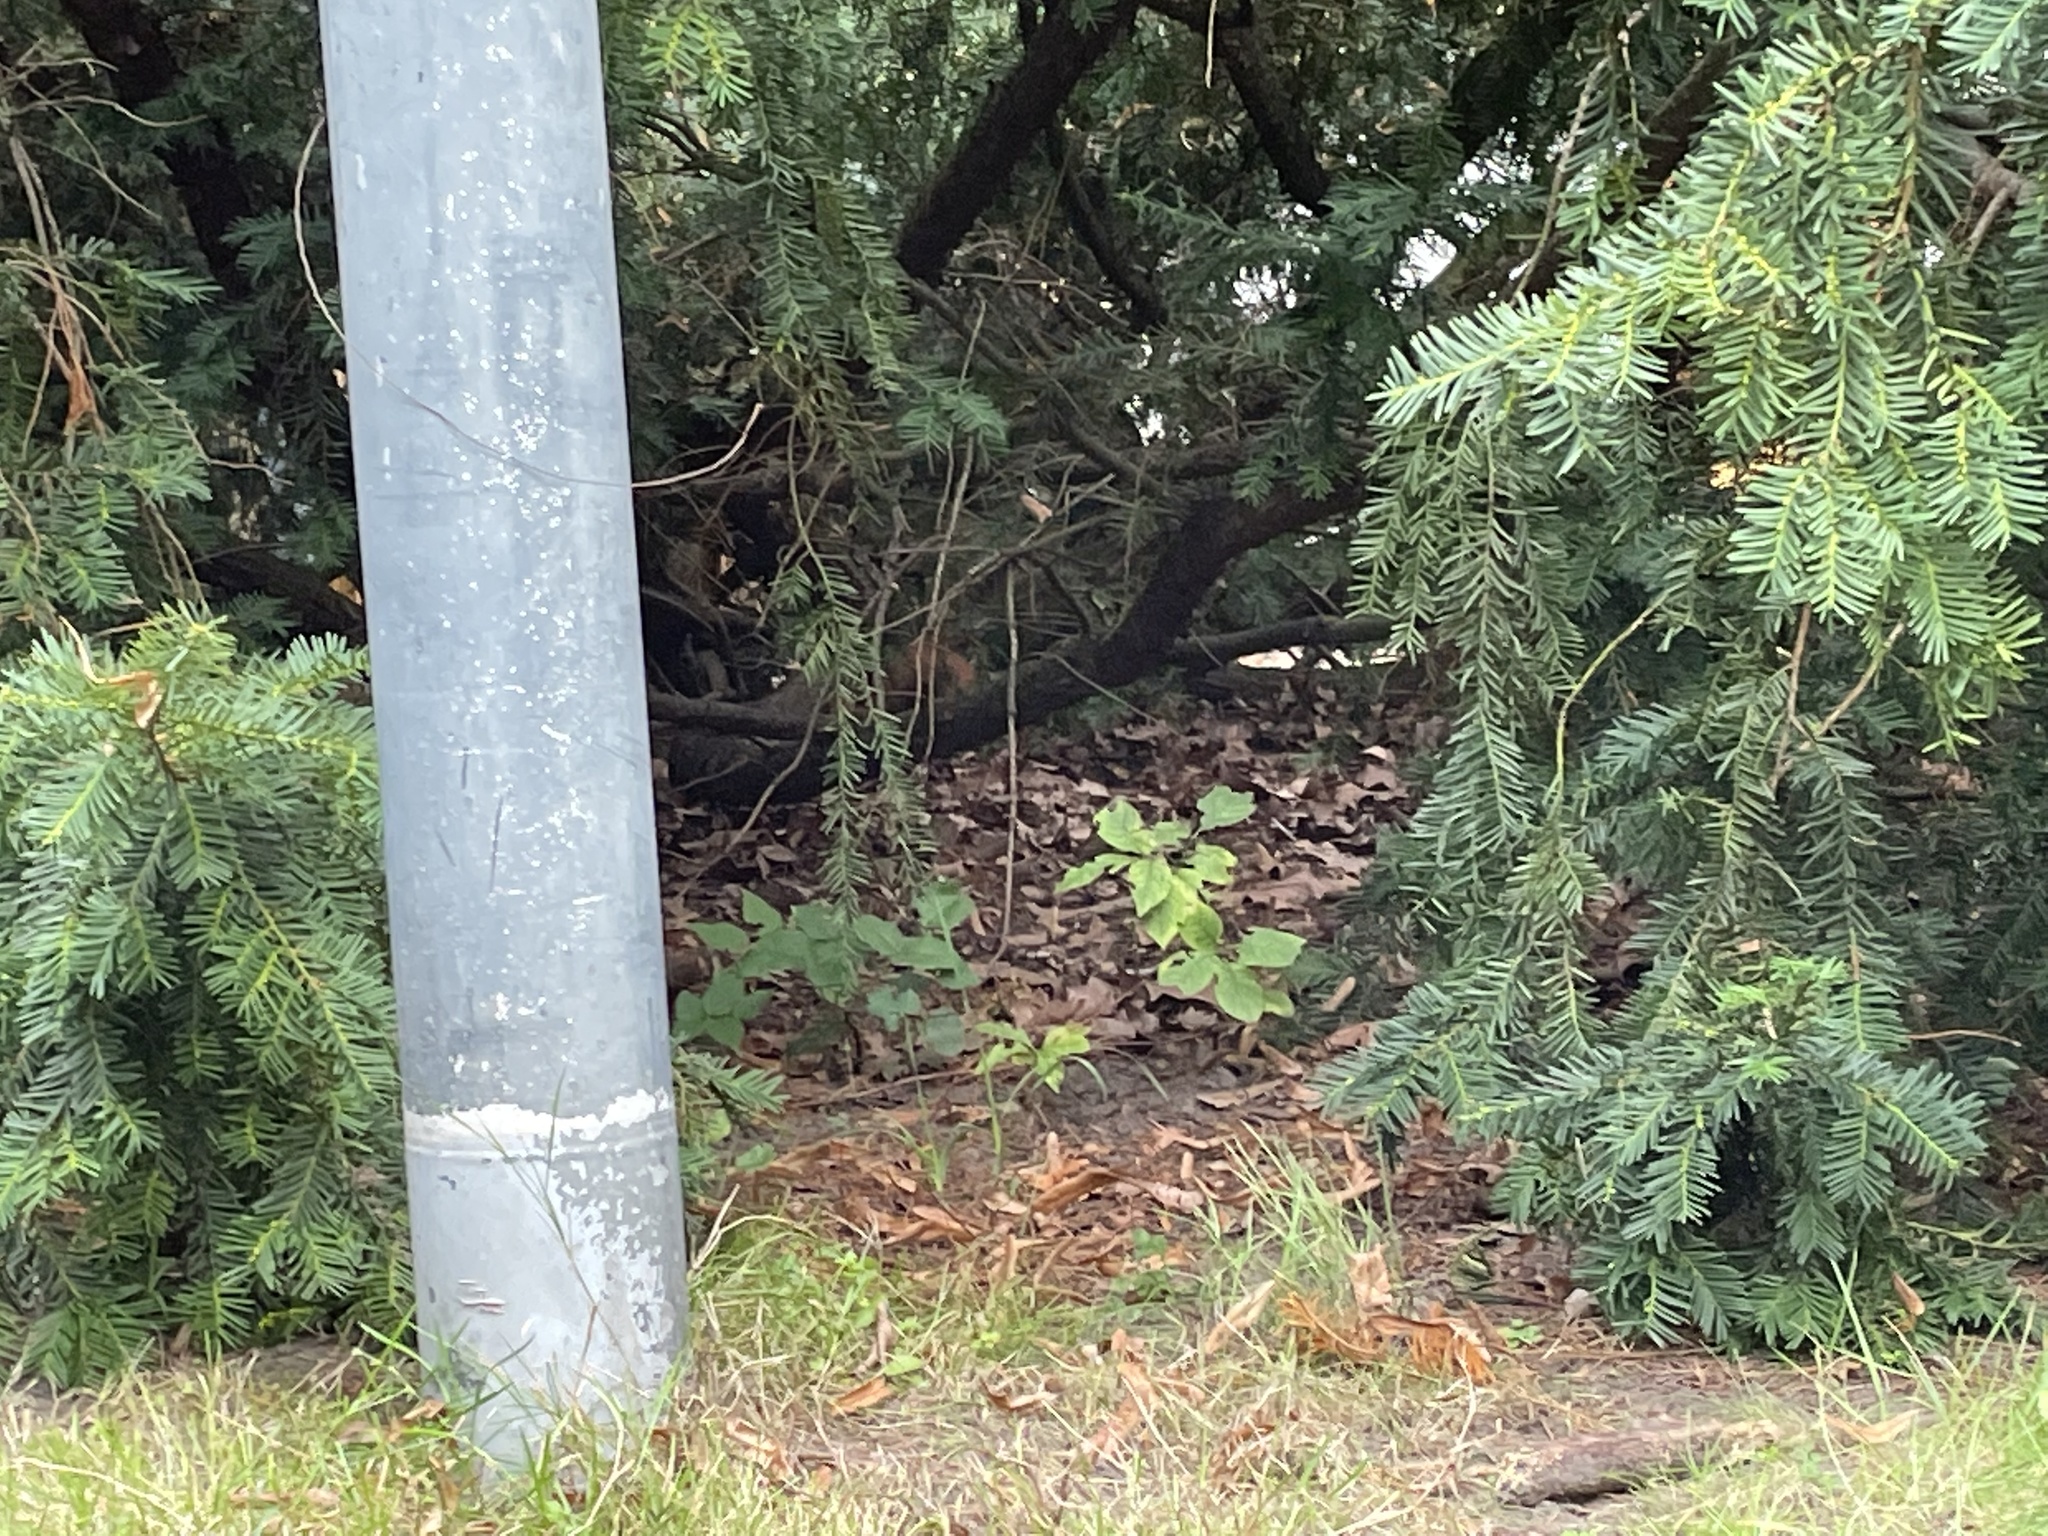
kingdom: Animalia
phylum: Chordata
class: Mammalia
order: Rodentia
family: Sciuridae
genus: Sciurus
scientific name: Sciurus vulgaris
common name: Eurasian red squirrel
